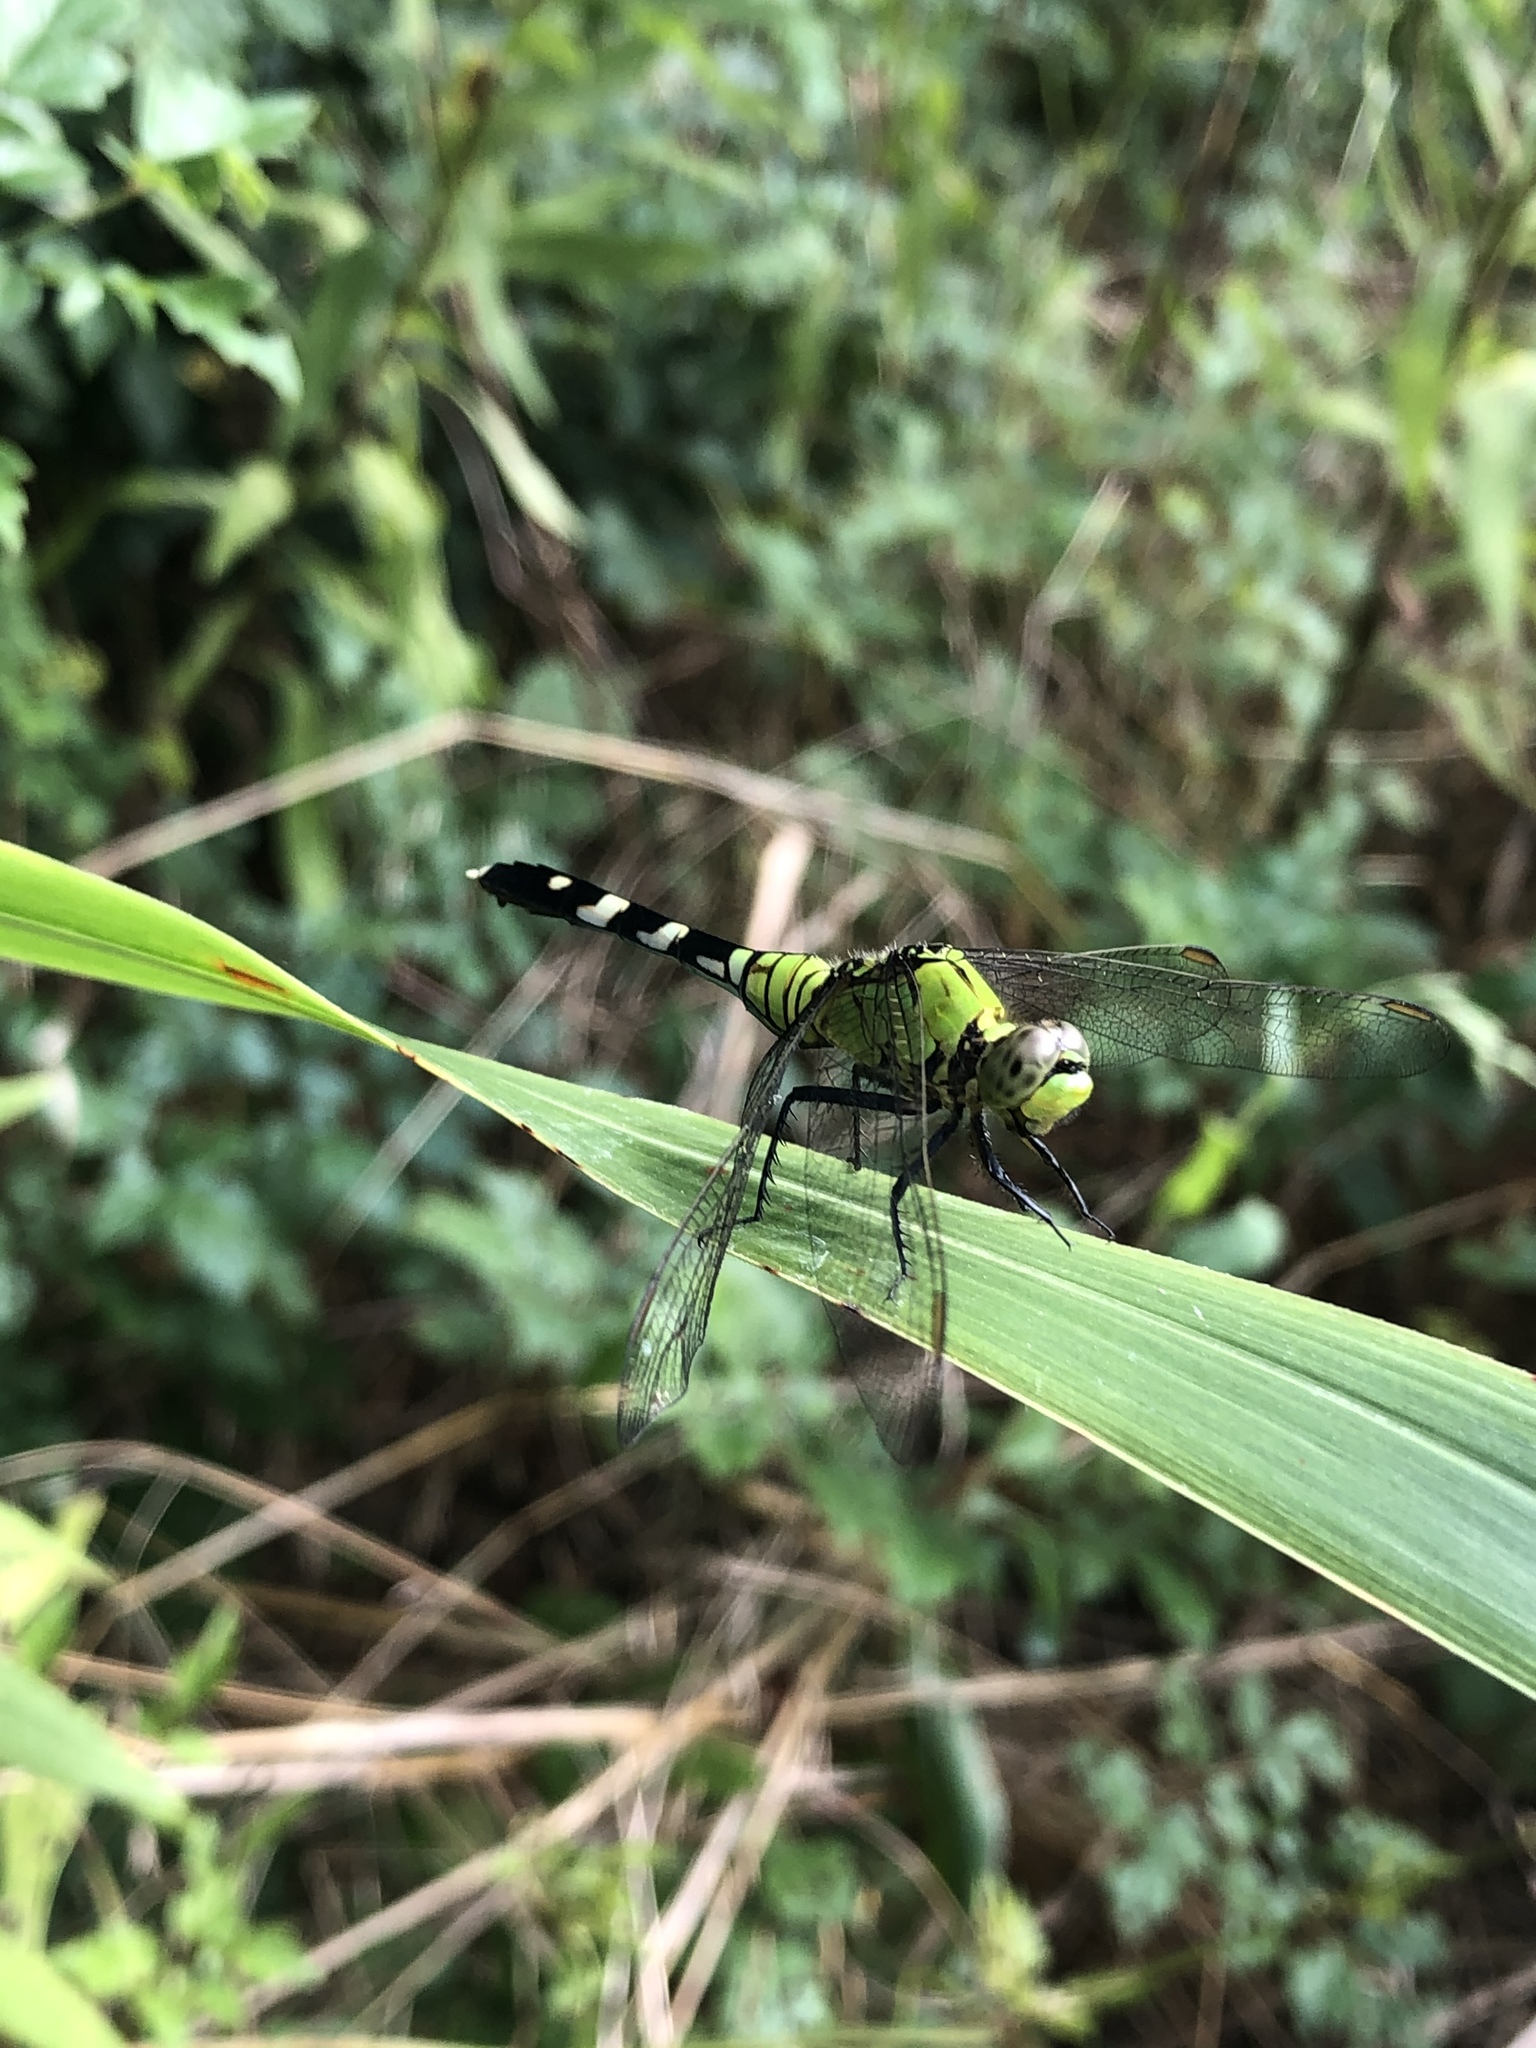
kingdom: Animalia
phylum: Arthropoda
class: Insecta
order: Odonata
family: Libellulidae
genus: Erythemis
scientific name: Erythemis simplicicollis
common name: Eastern pondhawk
